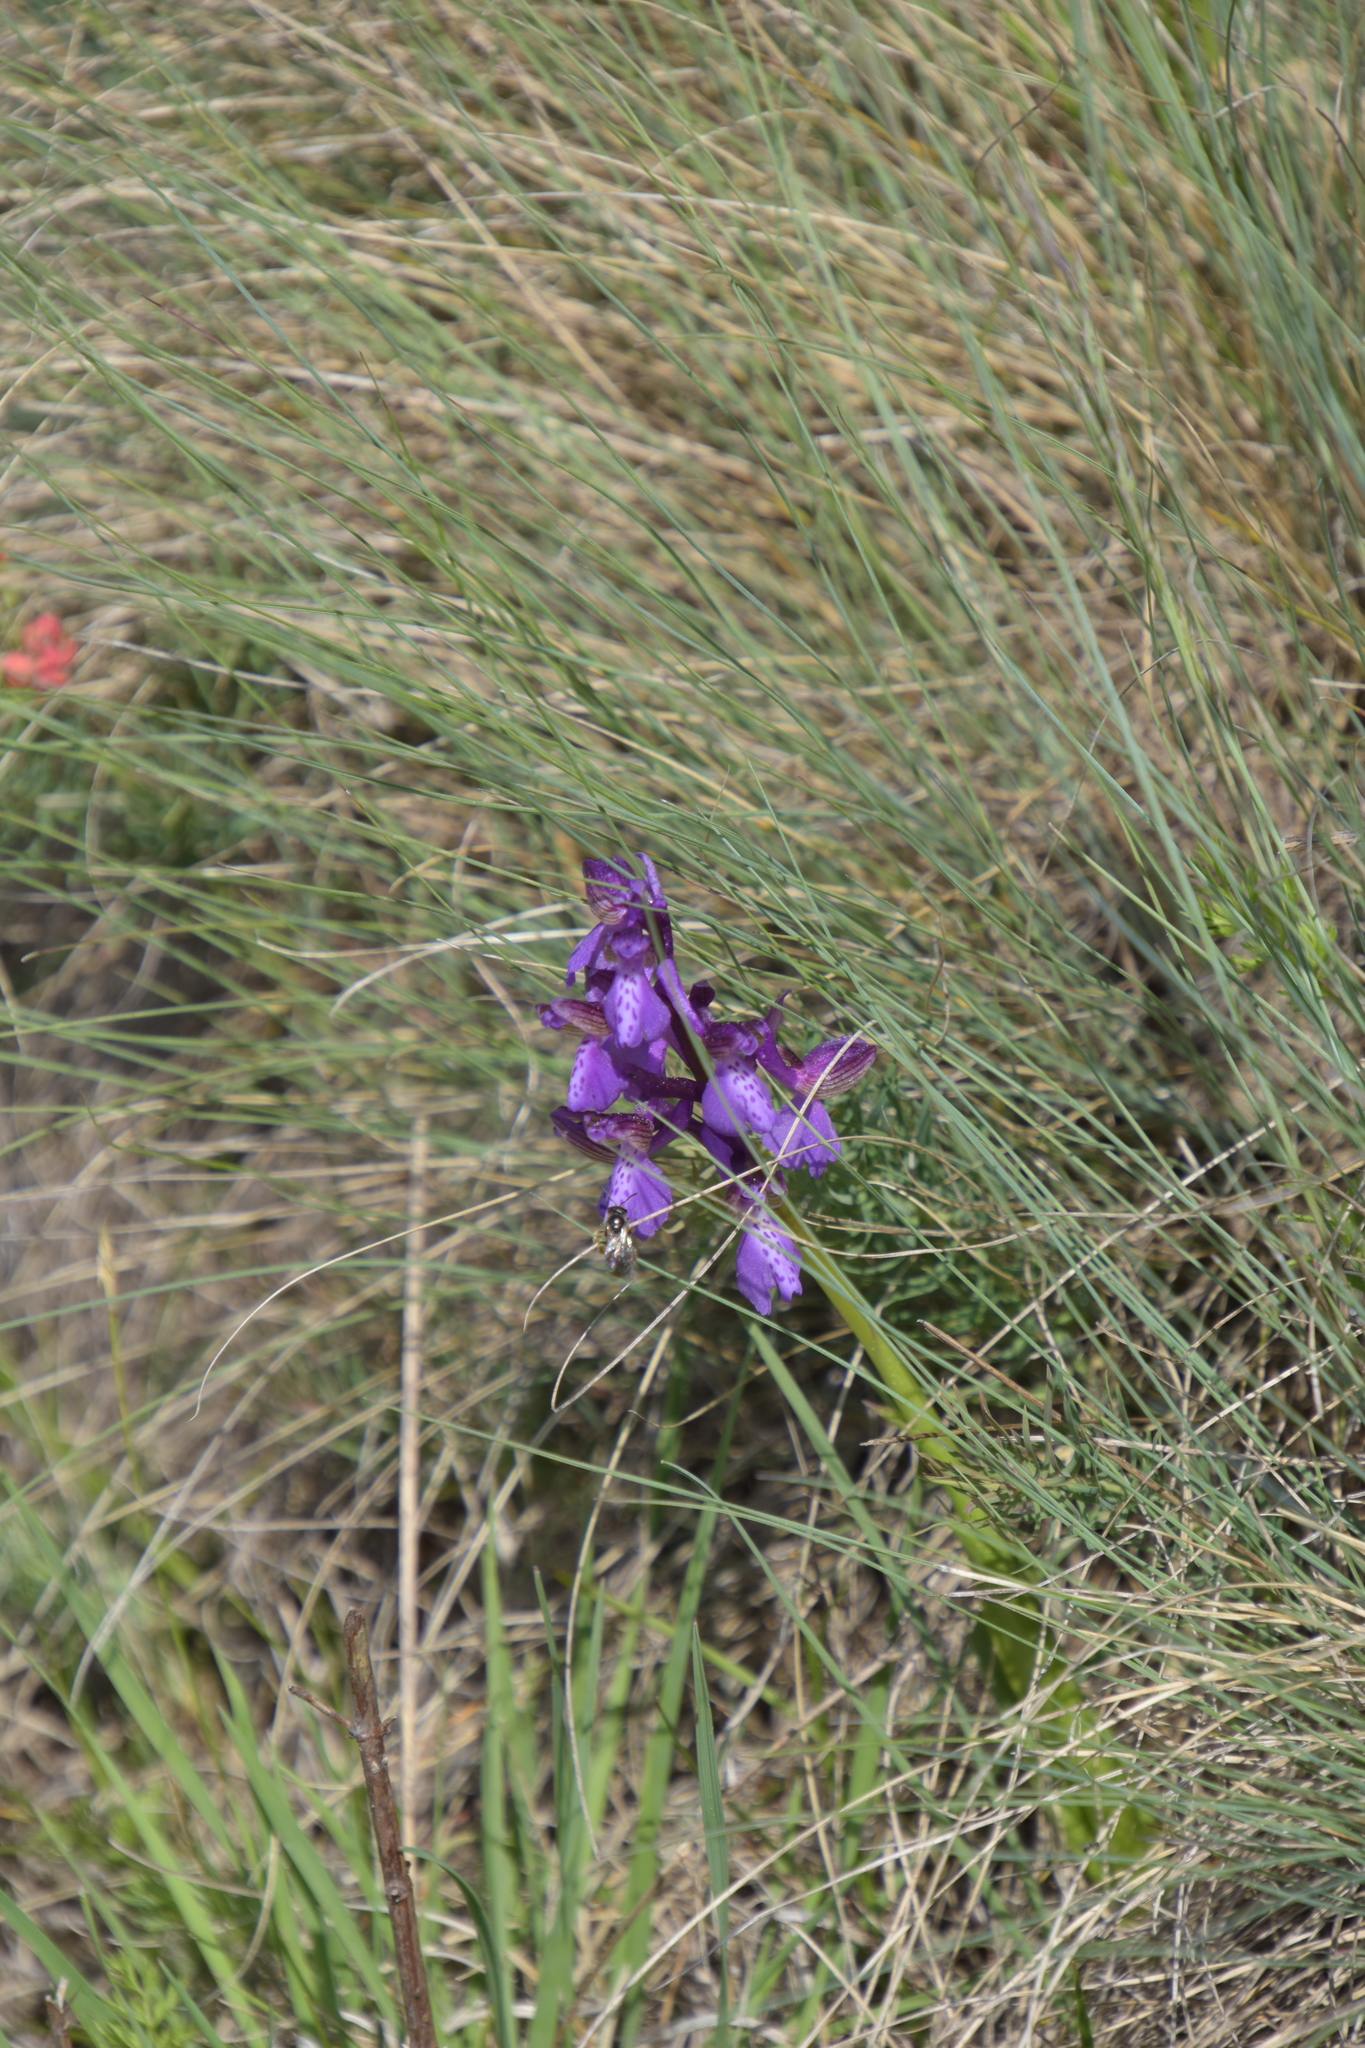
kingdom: Plantae
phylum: Tracheophyta
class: Liliopsida
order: Asparagales
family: Orchidaceae
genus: Anacamptis
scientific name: Anacamptis morio
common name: Green-winged orchid
